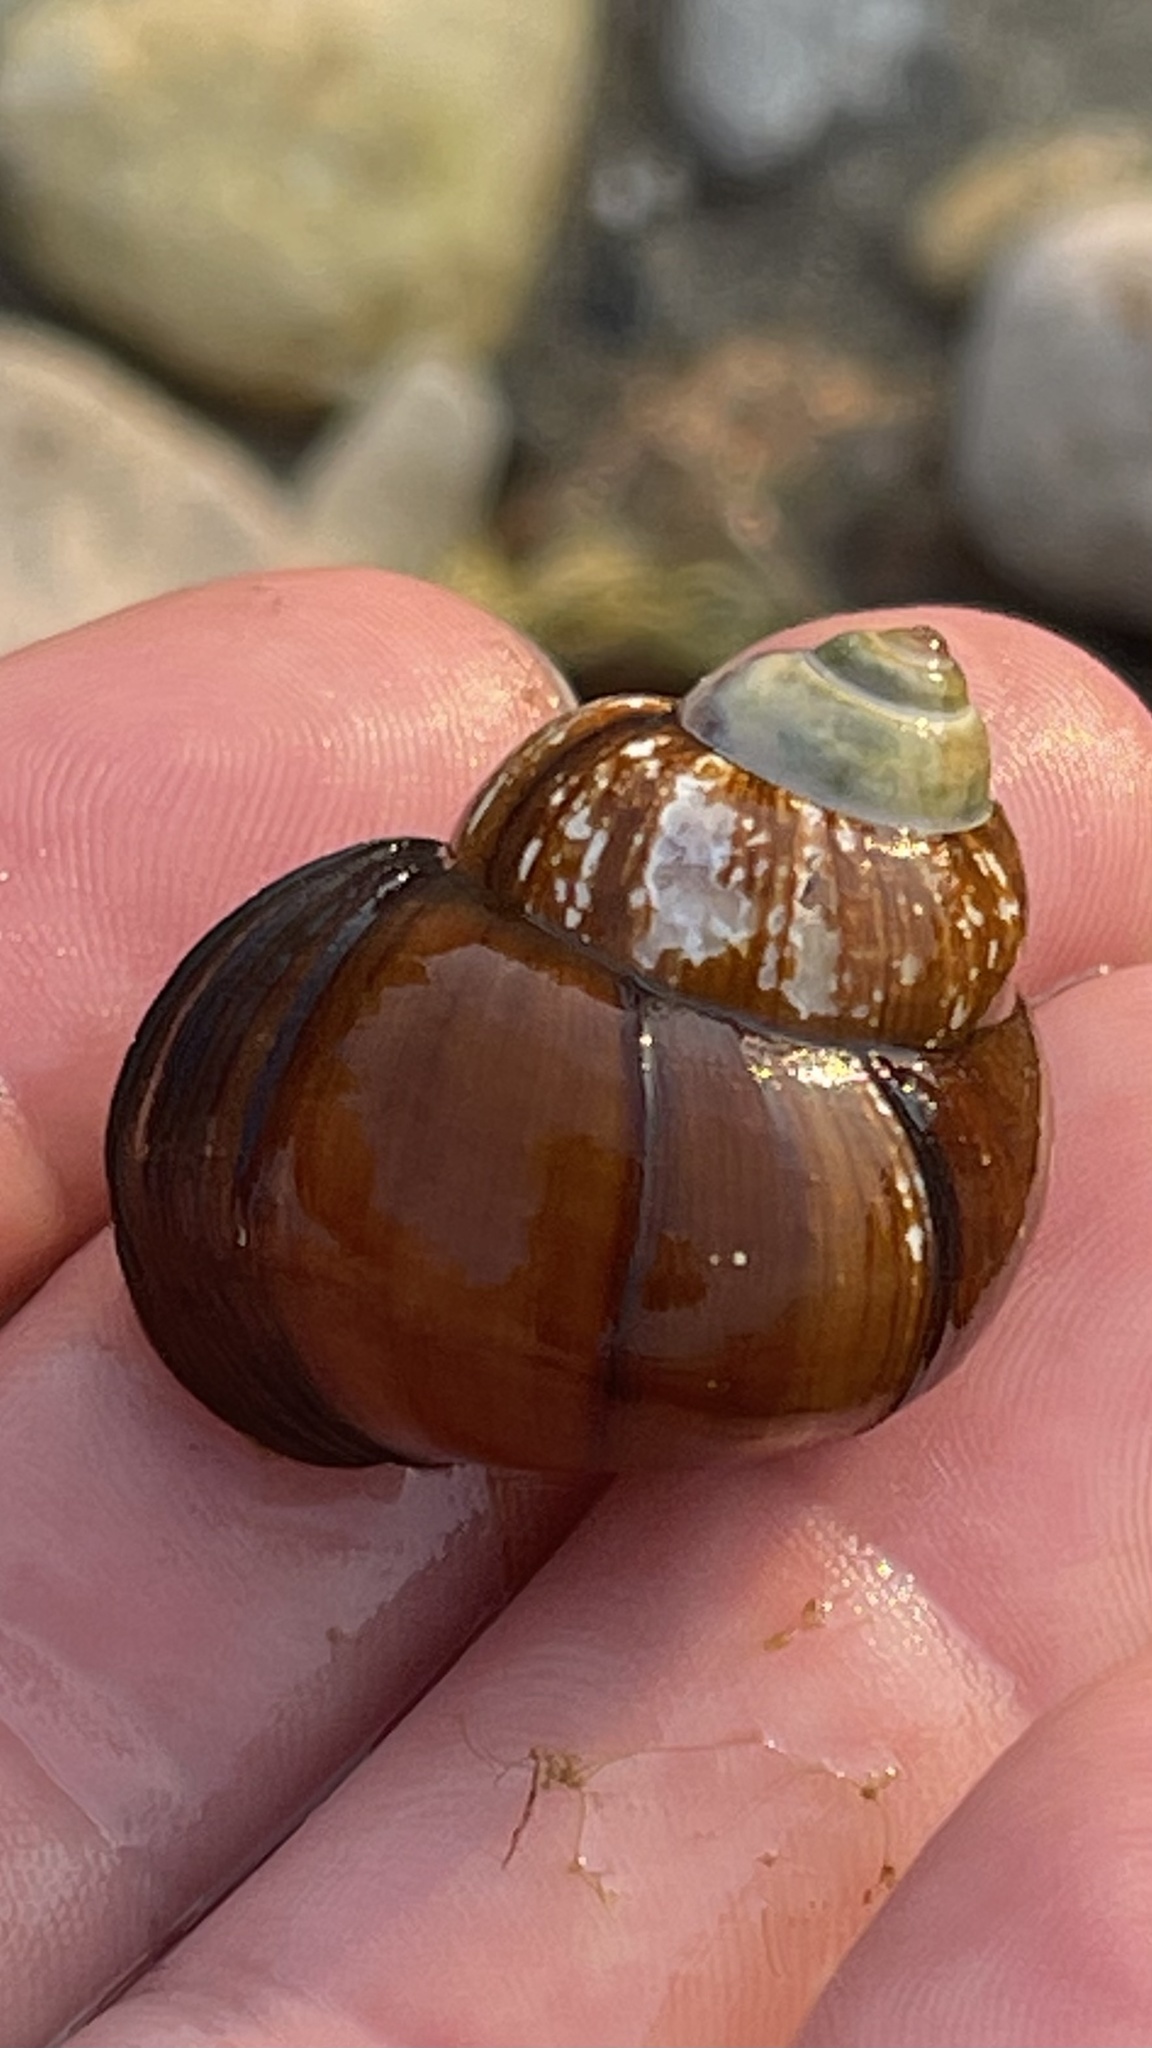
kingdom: Animalia
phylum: Mollusca
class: Gastropoda
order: Architaenioglossa
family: Viviparidae
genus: Cipangopaludina
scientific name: Cipangopaludina chinensis
